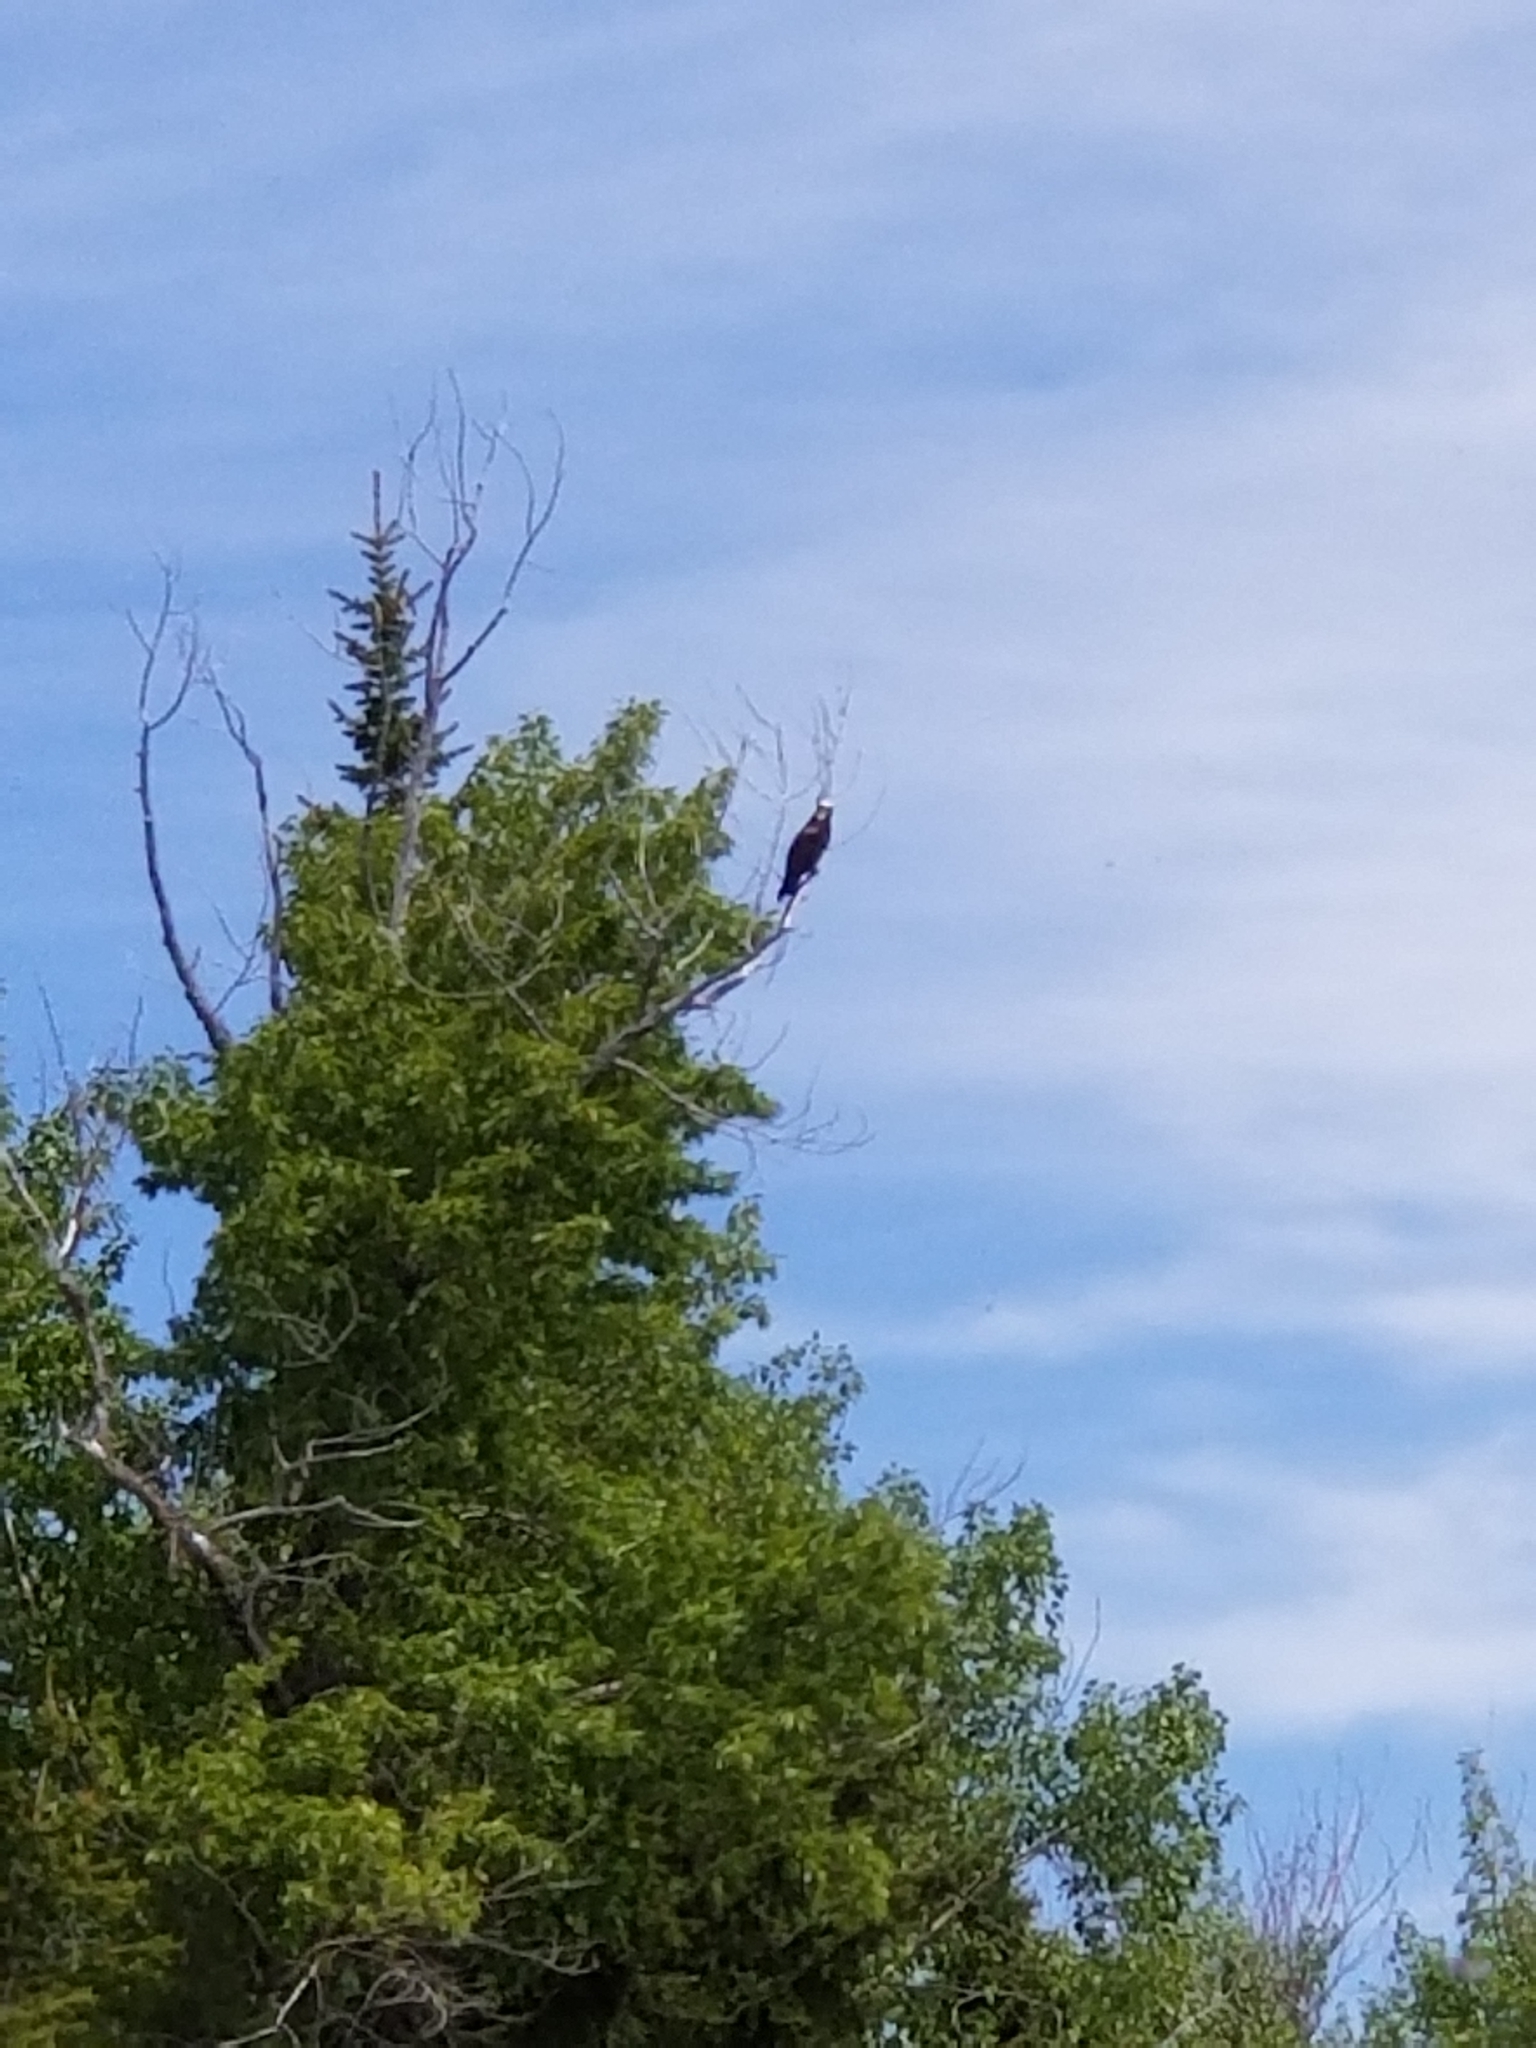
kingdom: Animalia
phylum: Chordata
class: Aves
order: Accipitriformes
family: Pandionidae
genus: Pandion
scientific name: Pandion haliaetus
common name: Osprey
